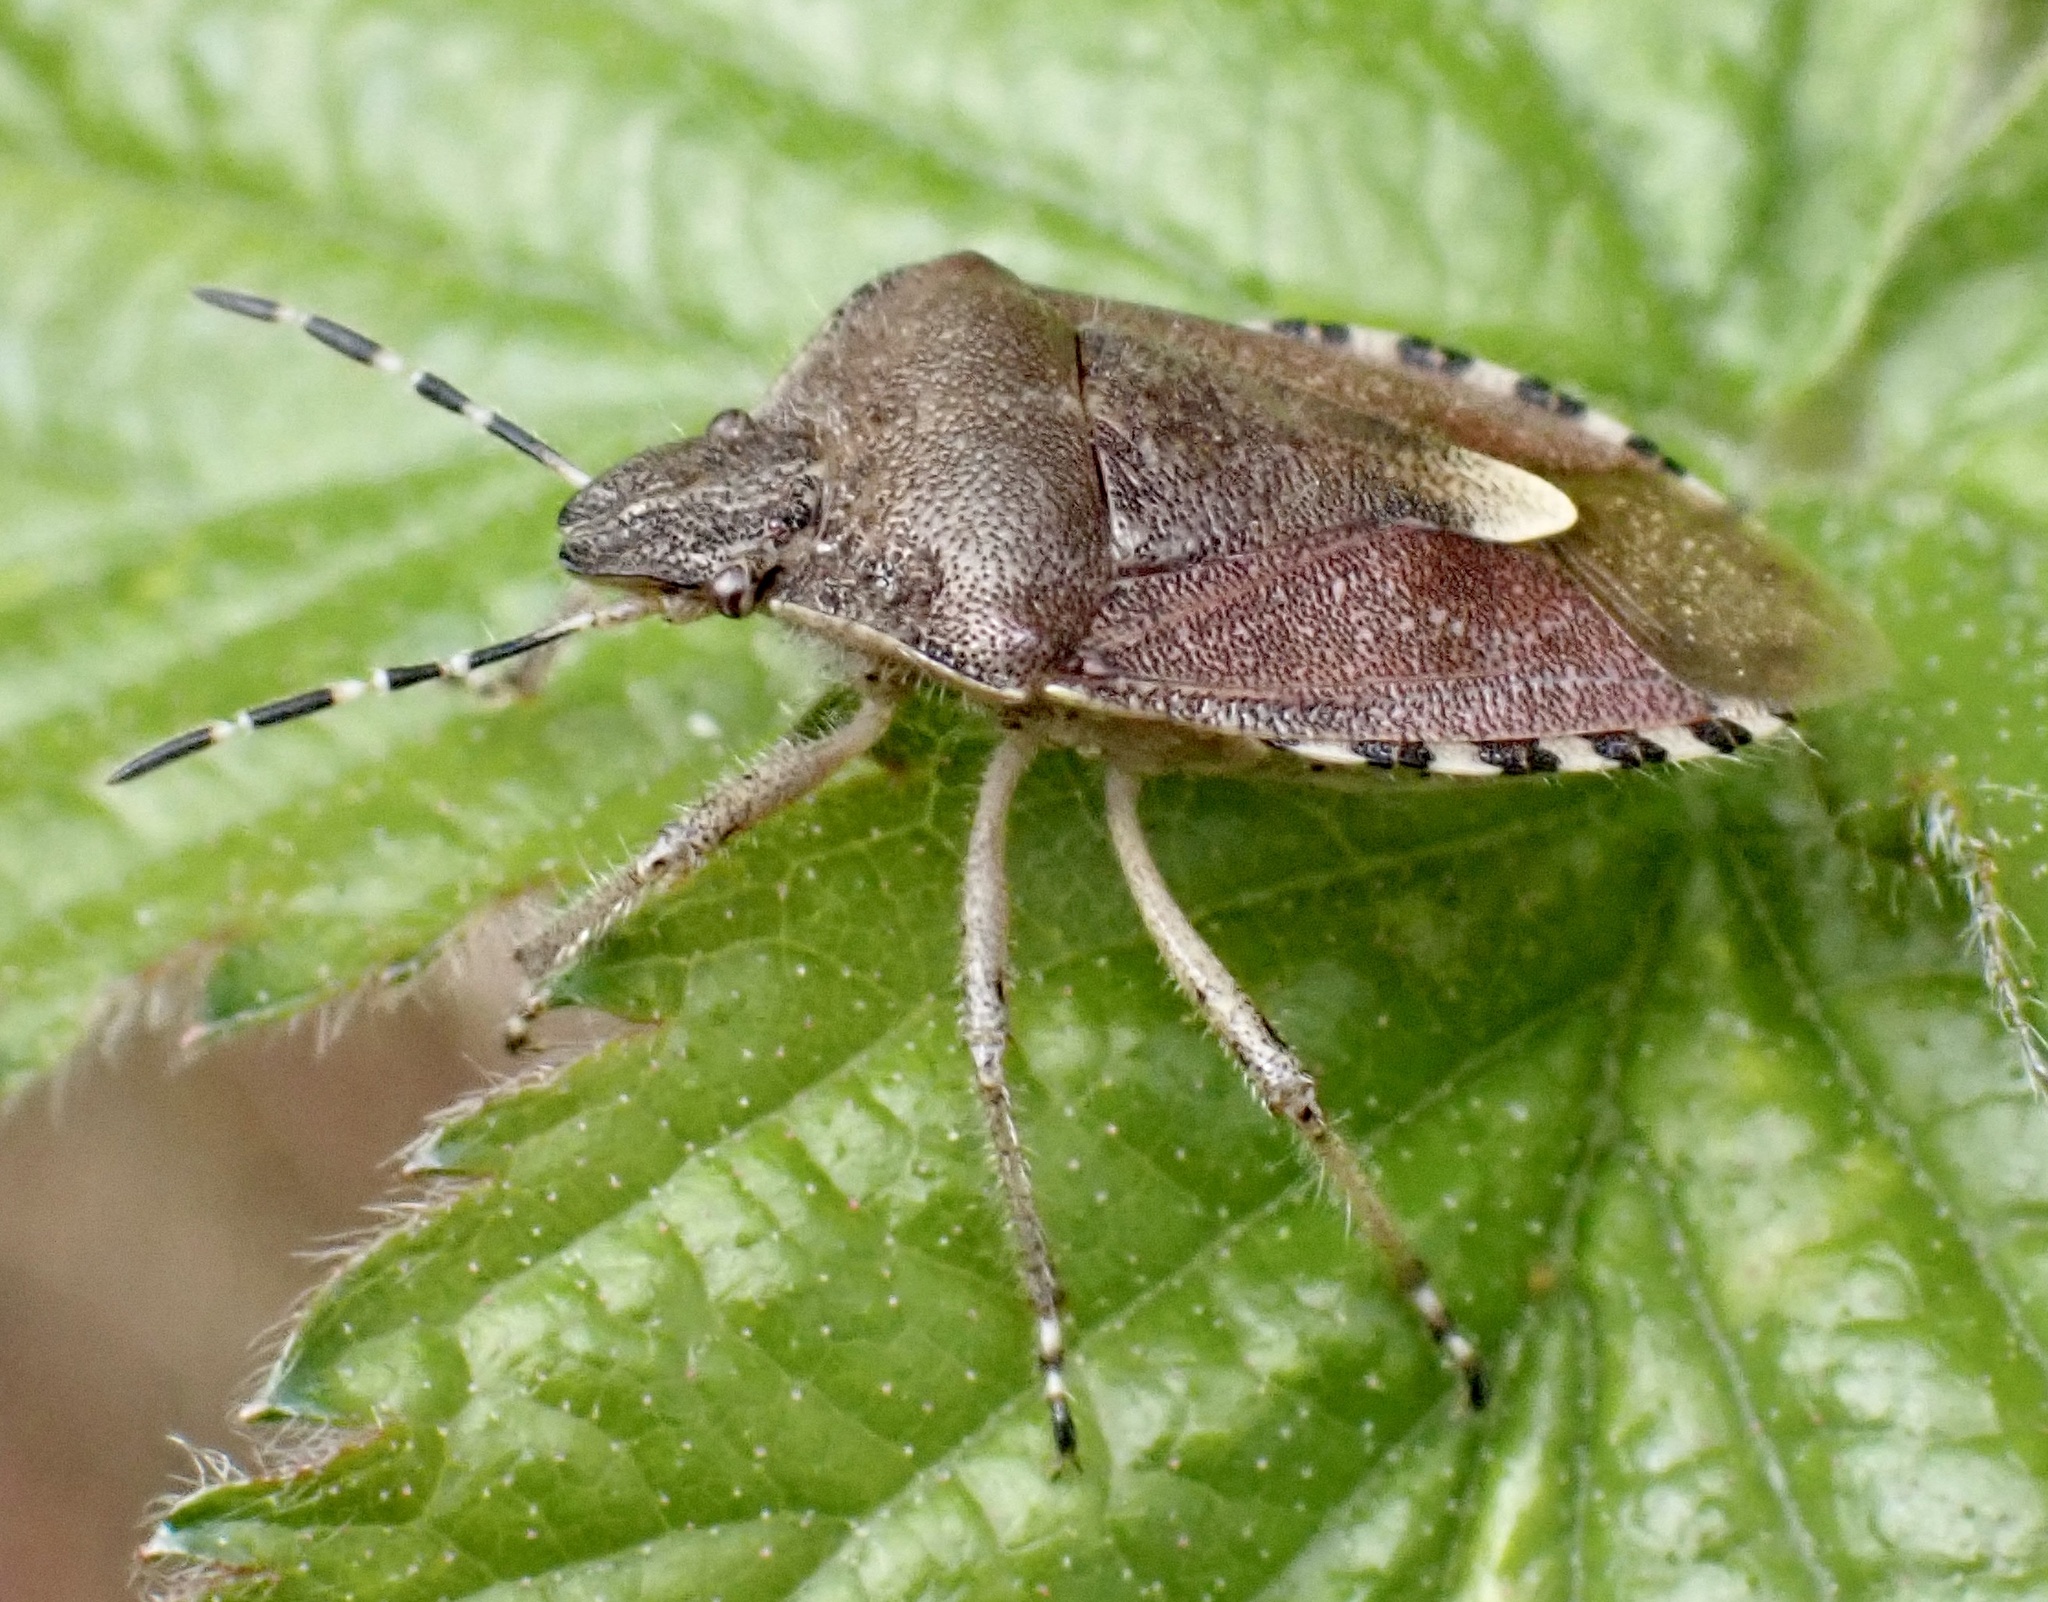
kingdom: Animalia
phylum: Arthropoda
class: Insecta
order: Hemiptera
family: Pentatomidae
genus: Dolycoris
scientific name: Dolycoris baccarum
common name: Sloe bug
